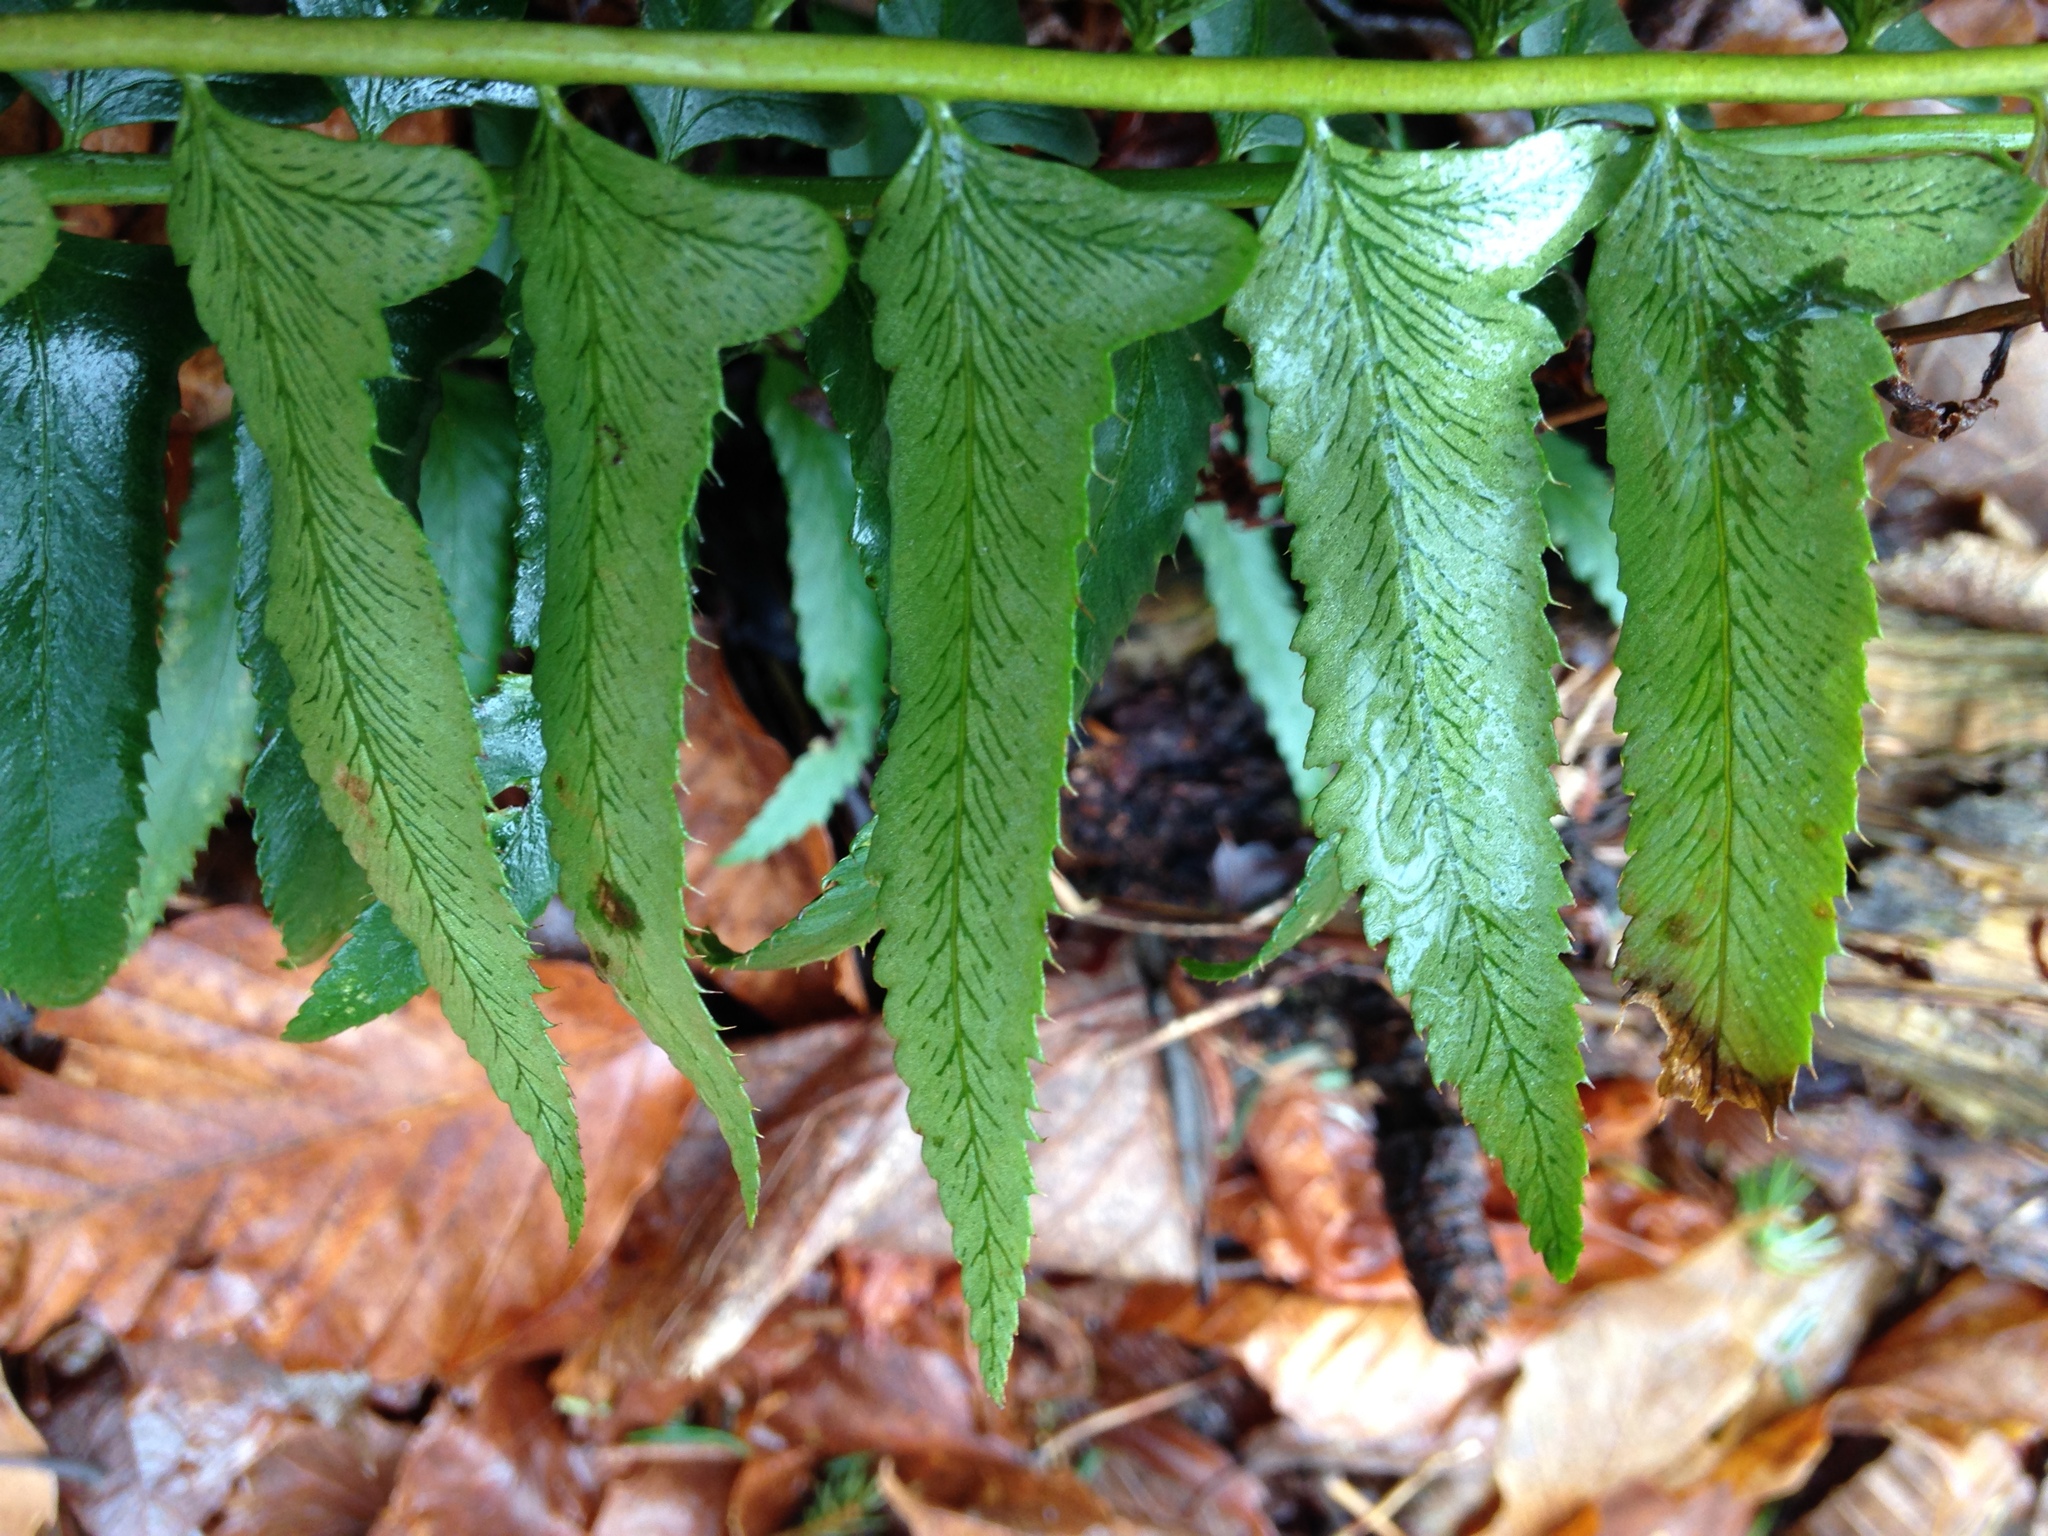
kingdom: Plantae
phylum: Tracheophyta
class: Polypodiopsida
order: Polypodiales
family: Dryopteridaceae
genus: Polystichum
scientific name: Polystichum acrostichoides
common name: Christmas fern
